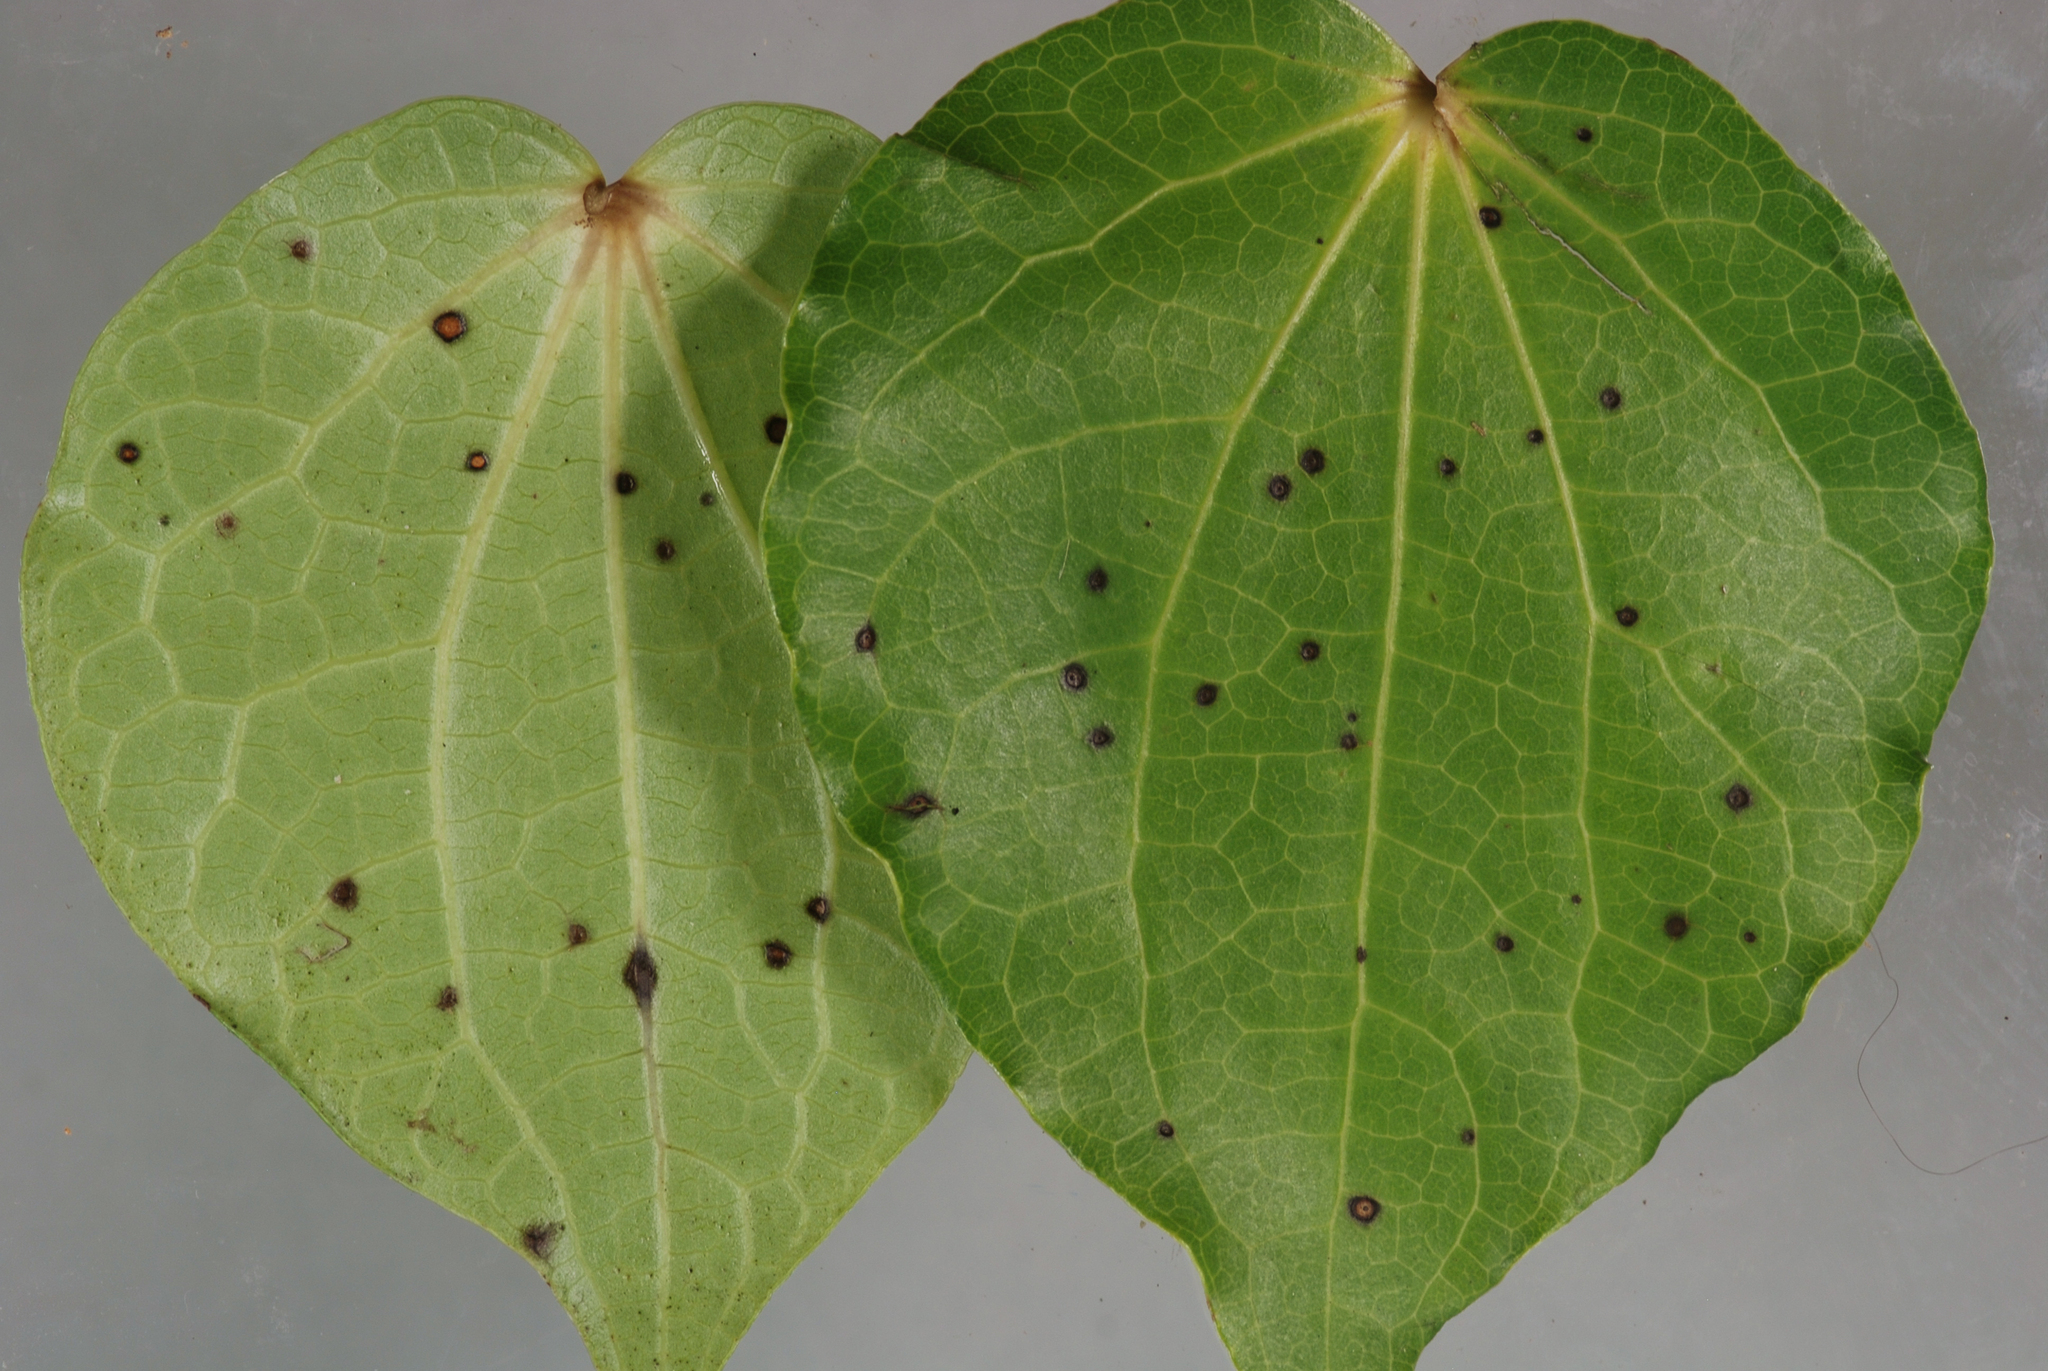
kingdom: Fungi
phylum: Ascomycota
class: Sordariomycetes
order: Glomerellales
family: Glomerellaceae
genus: Colletotrichum
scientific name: Colletotrichum aotearoa
